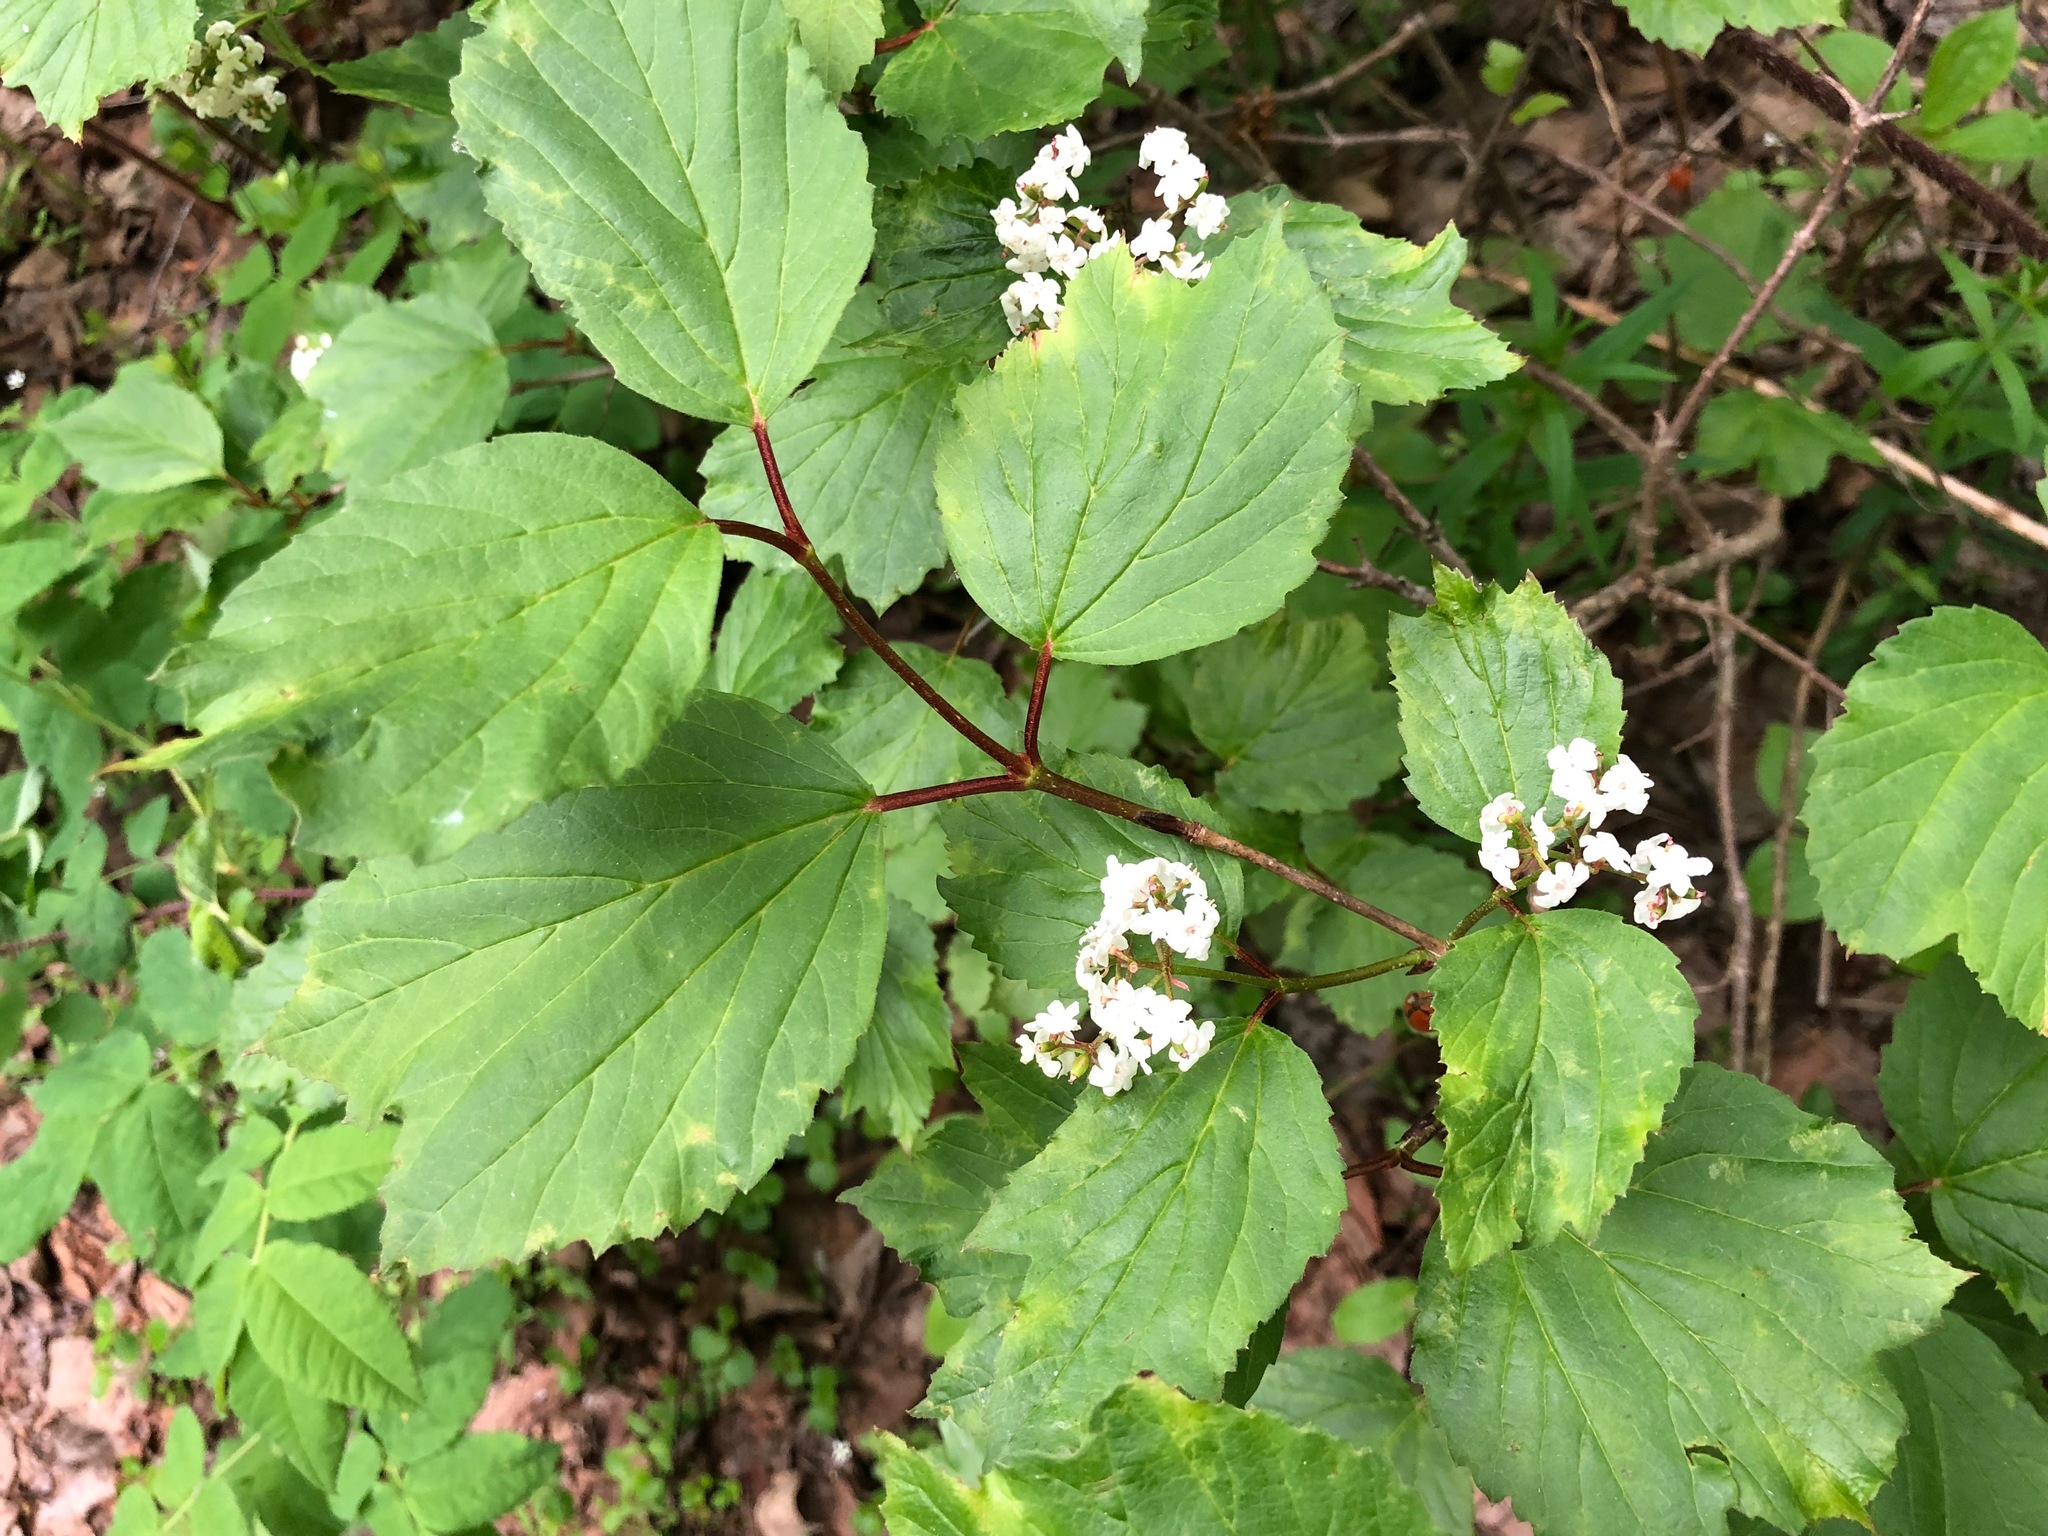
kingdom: Plantae
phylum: Tracheophyta
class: Magnoliopsida
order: Dipsacales
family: Viburnaceae
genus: Viburnum
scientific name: Viburnum edule
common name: Mooseberry
